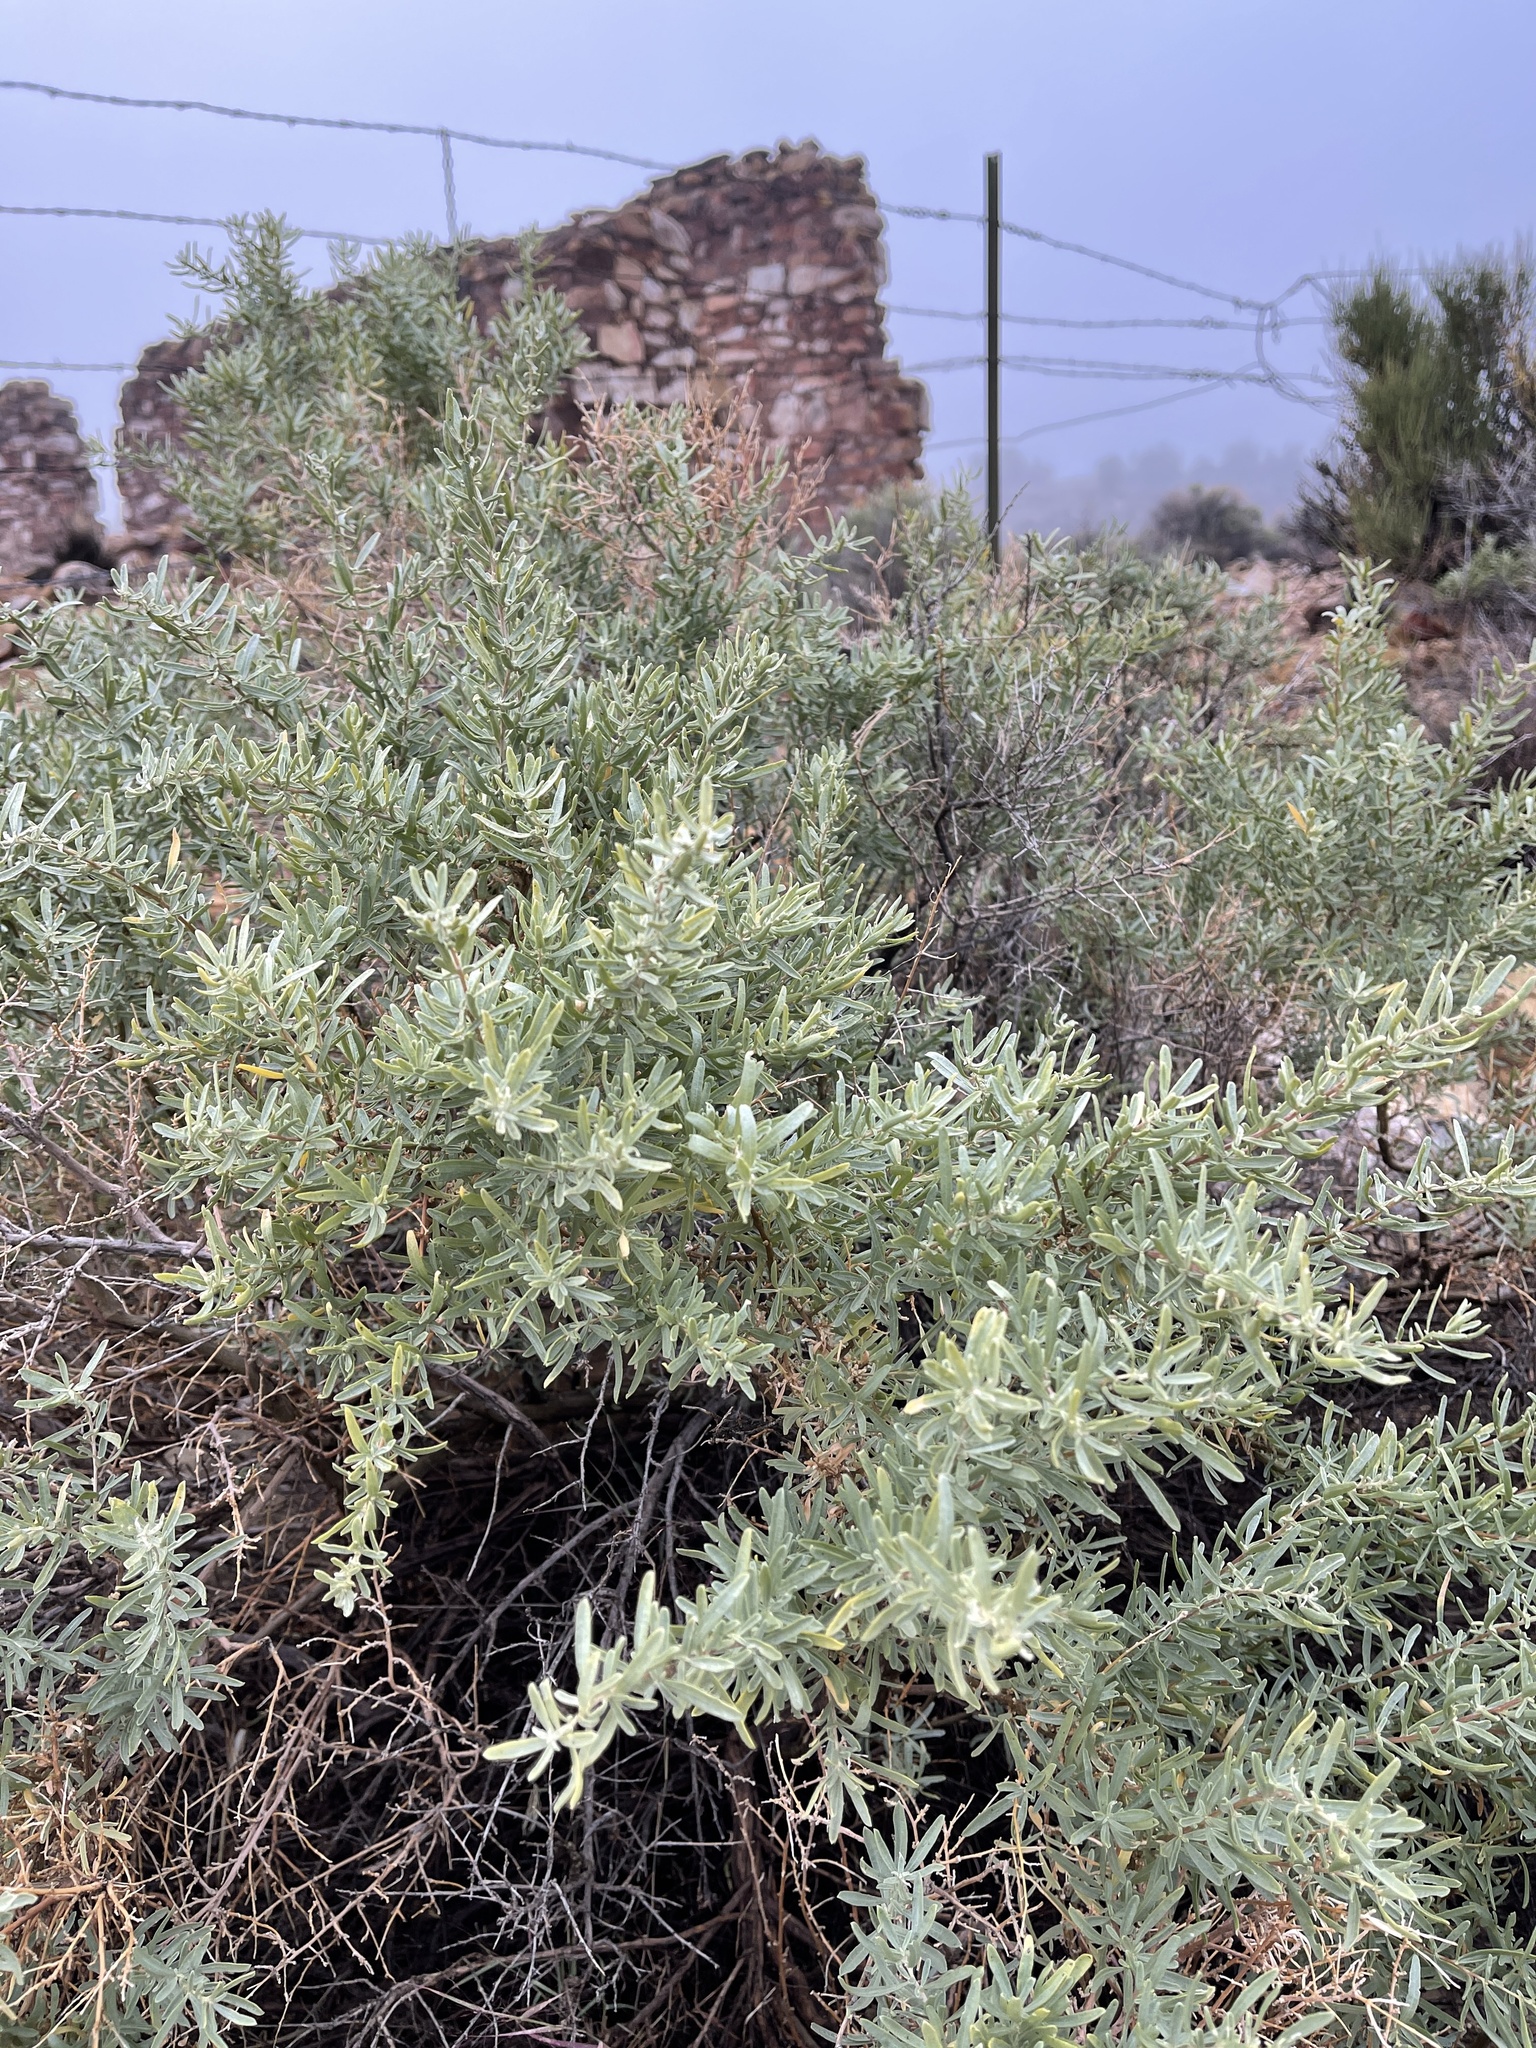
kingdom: Plantae
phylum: Tracheophyta
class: Magnoliopsida
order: Caryophyllales
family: Amaranthaceae
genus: Atriplex
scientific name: Atriplex canescens
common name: Four-wing saltbush
